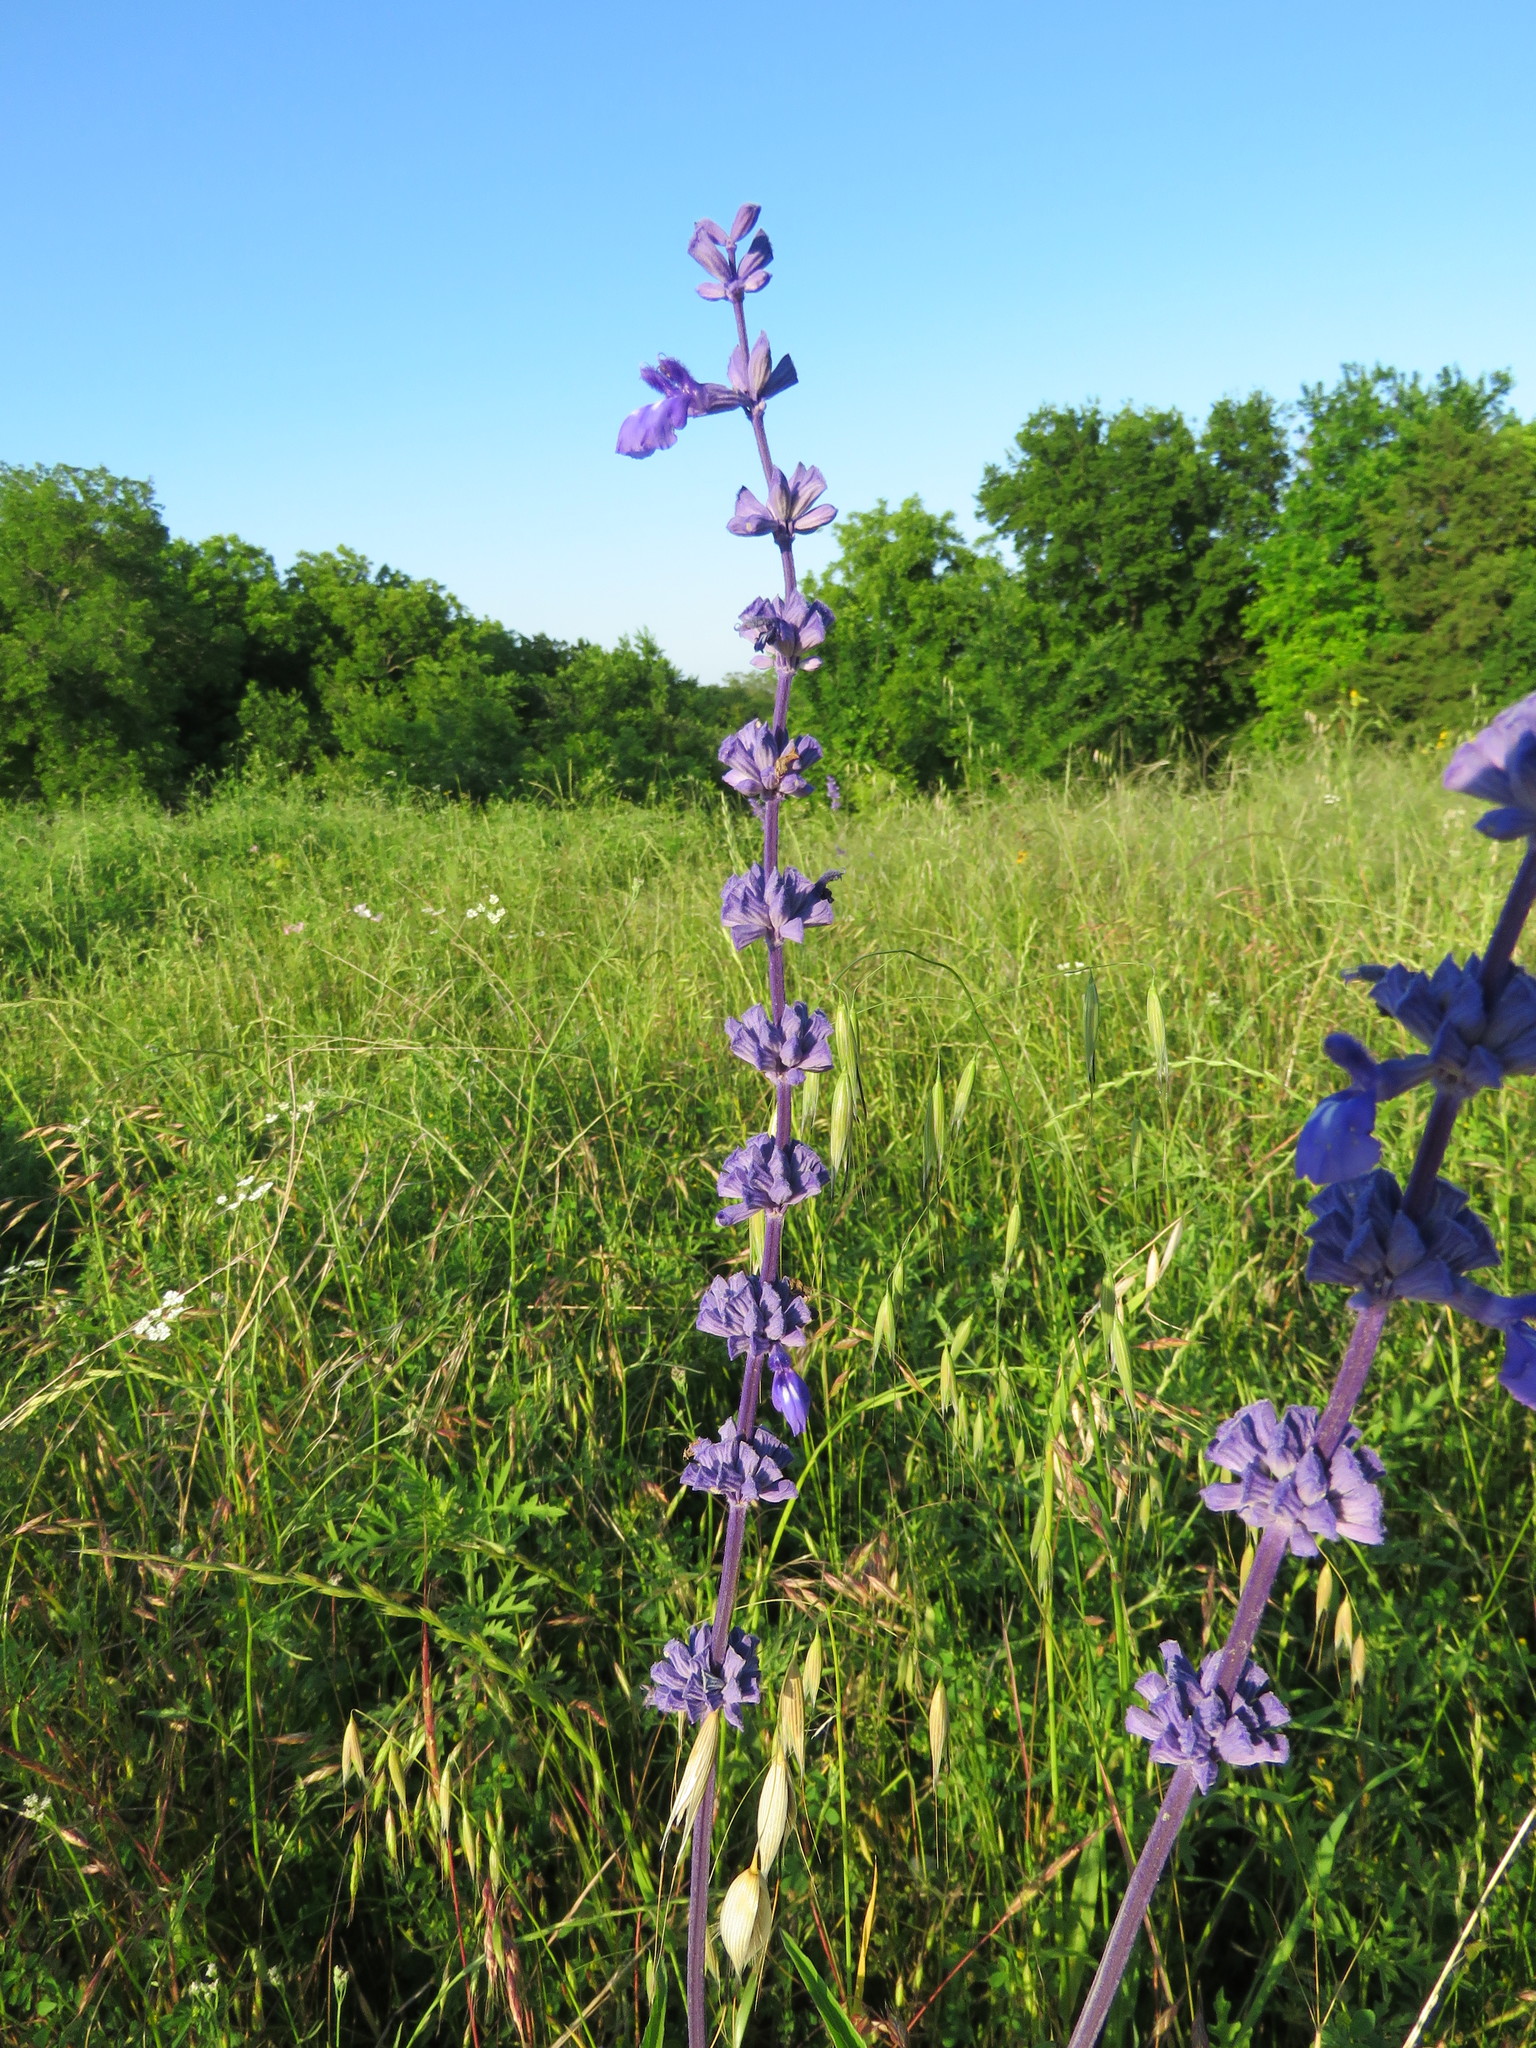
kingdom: Plantae
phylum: Tracheophyta
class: Magnoliopsida
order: Lamiales
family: Lamiaceae
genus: Salvia
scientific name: Salvia farinacea
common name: Mealy sage
